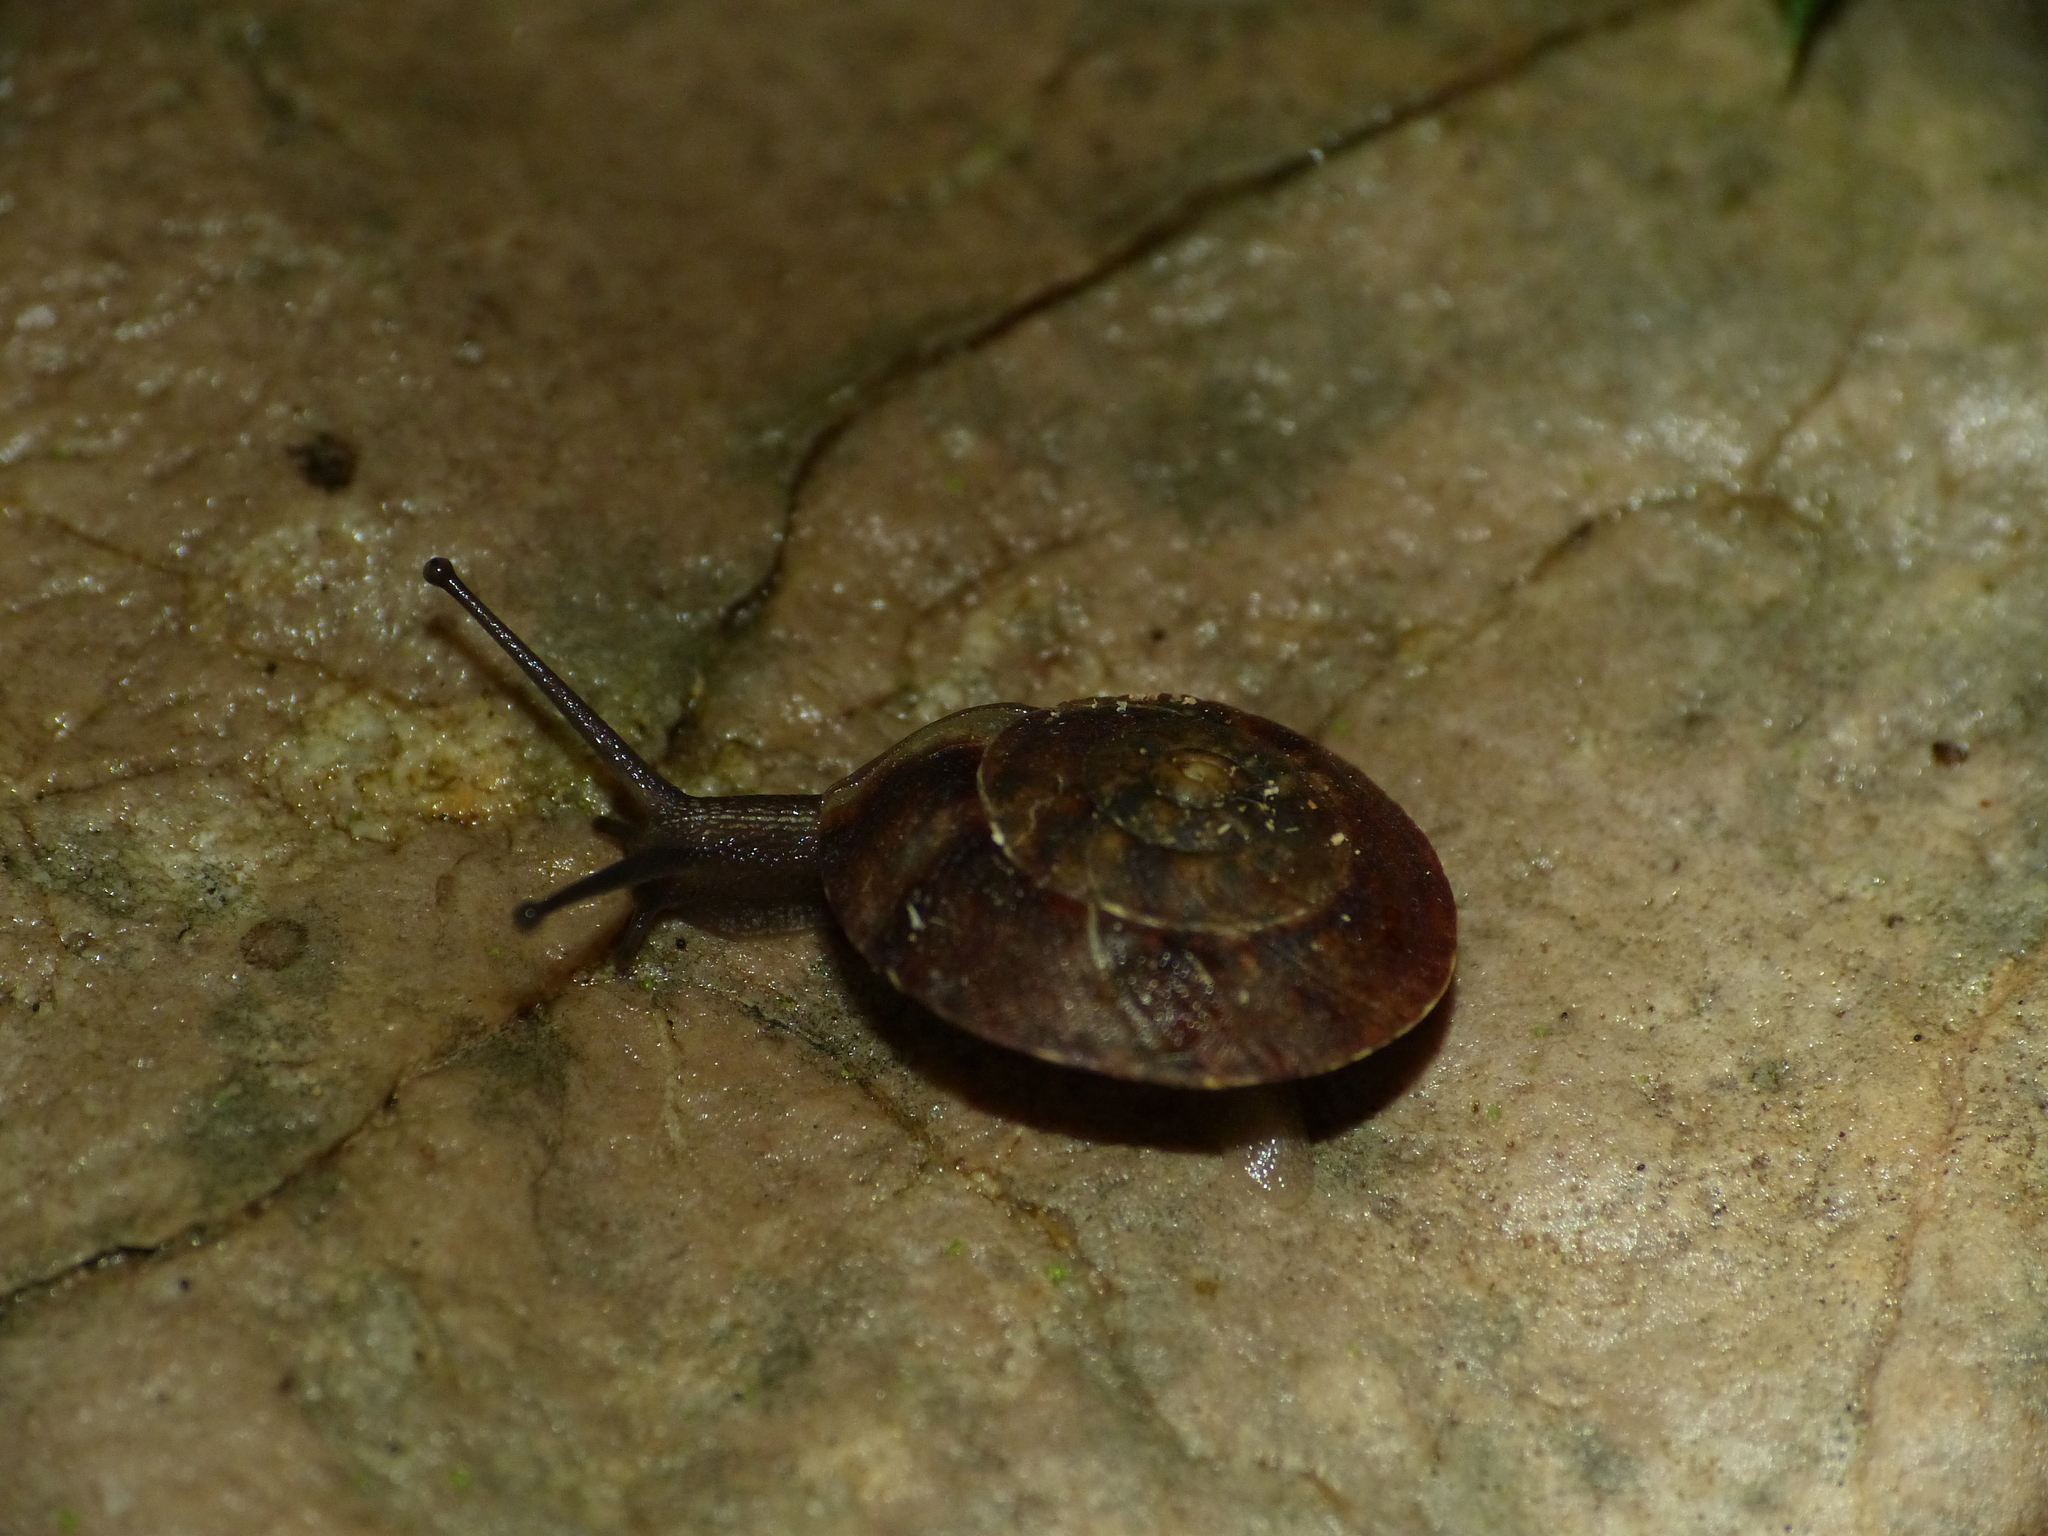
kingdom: Animalia
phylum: Mollusca
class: Gastropoda
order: Stylommatophora
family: Helicidae
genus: Helicigona
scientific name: Helicigona lapicida
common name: Lapidary snail
